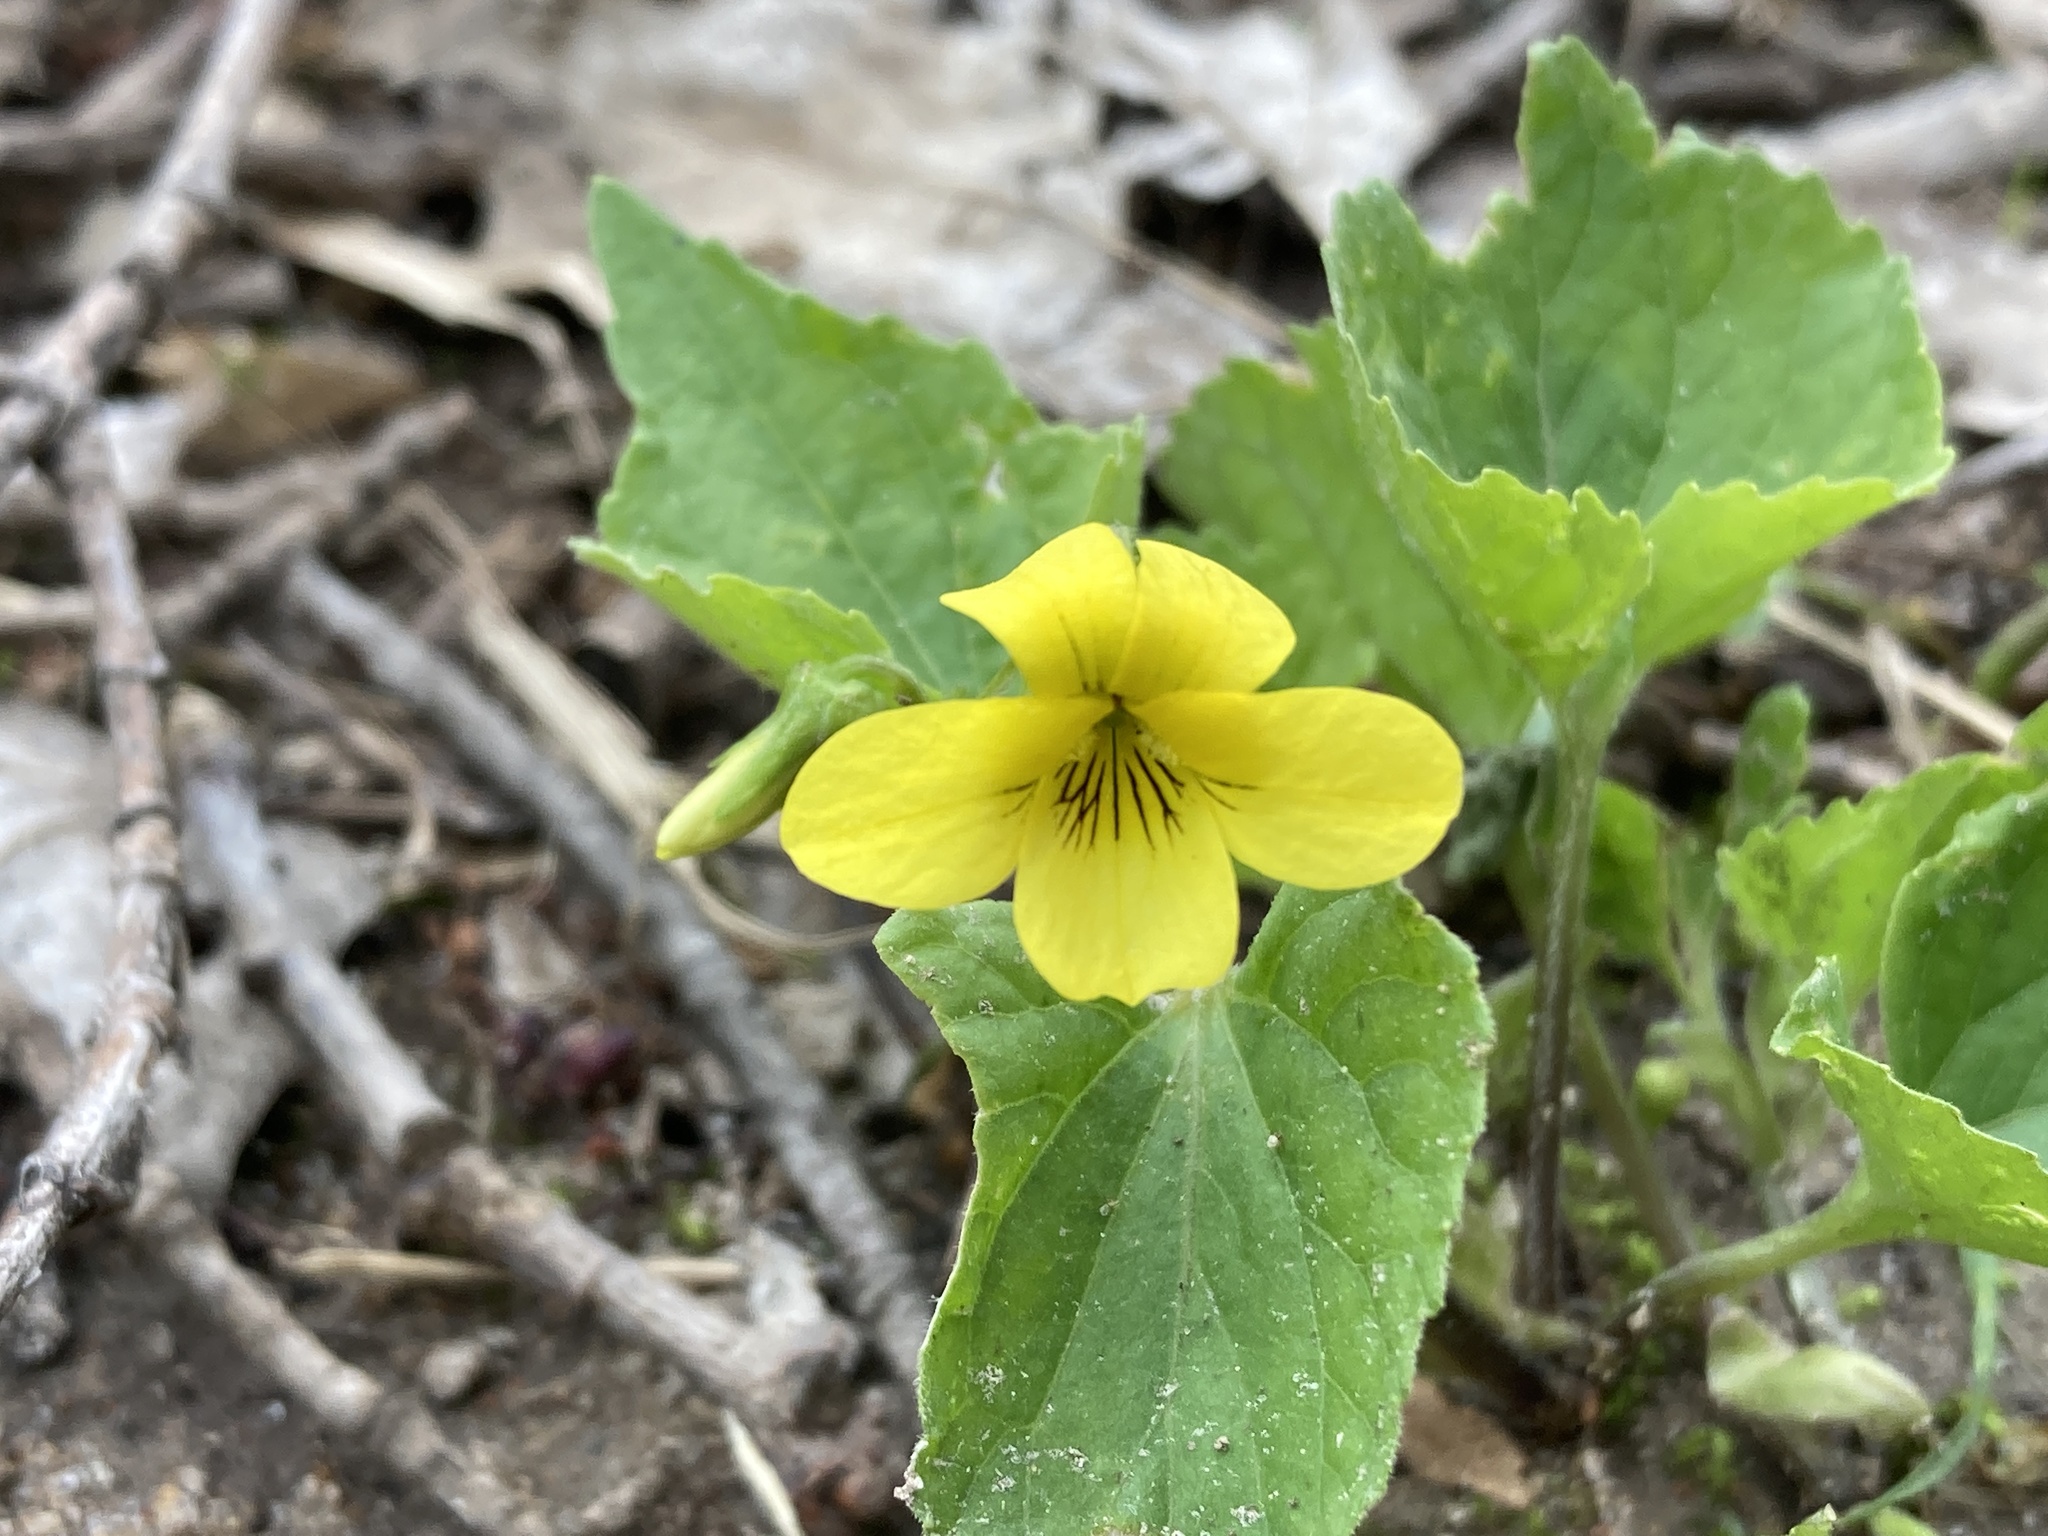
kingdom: Plantae
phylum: Tracheophyta
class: Magnoliopsida
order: Malpighiales
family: Violaceae
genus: Viola
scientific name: Viola eriocarpa
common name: Smooth yellow violet
